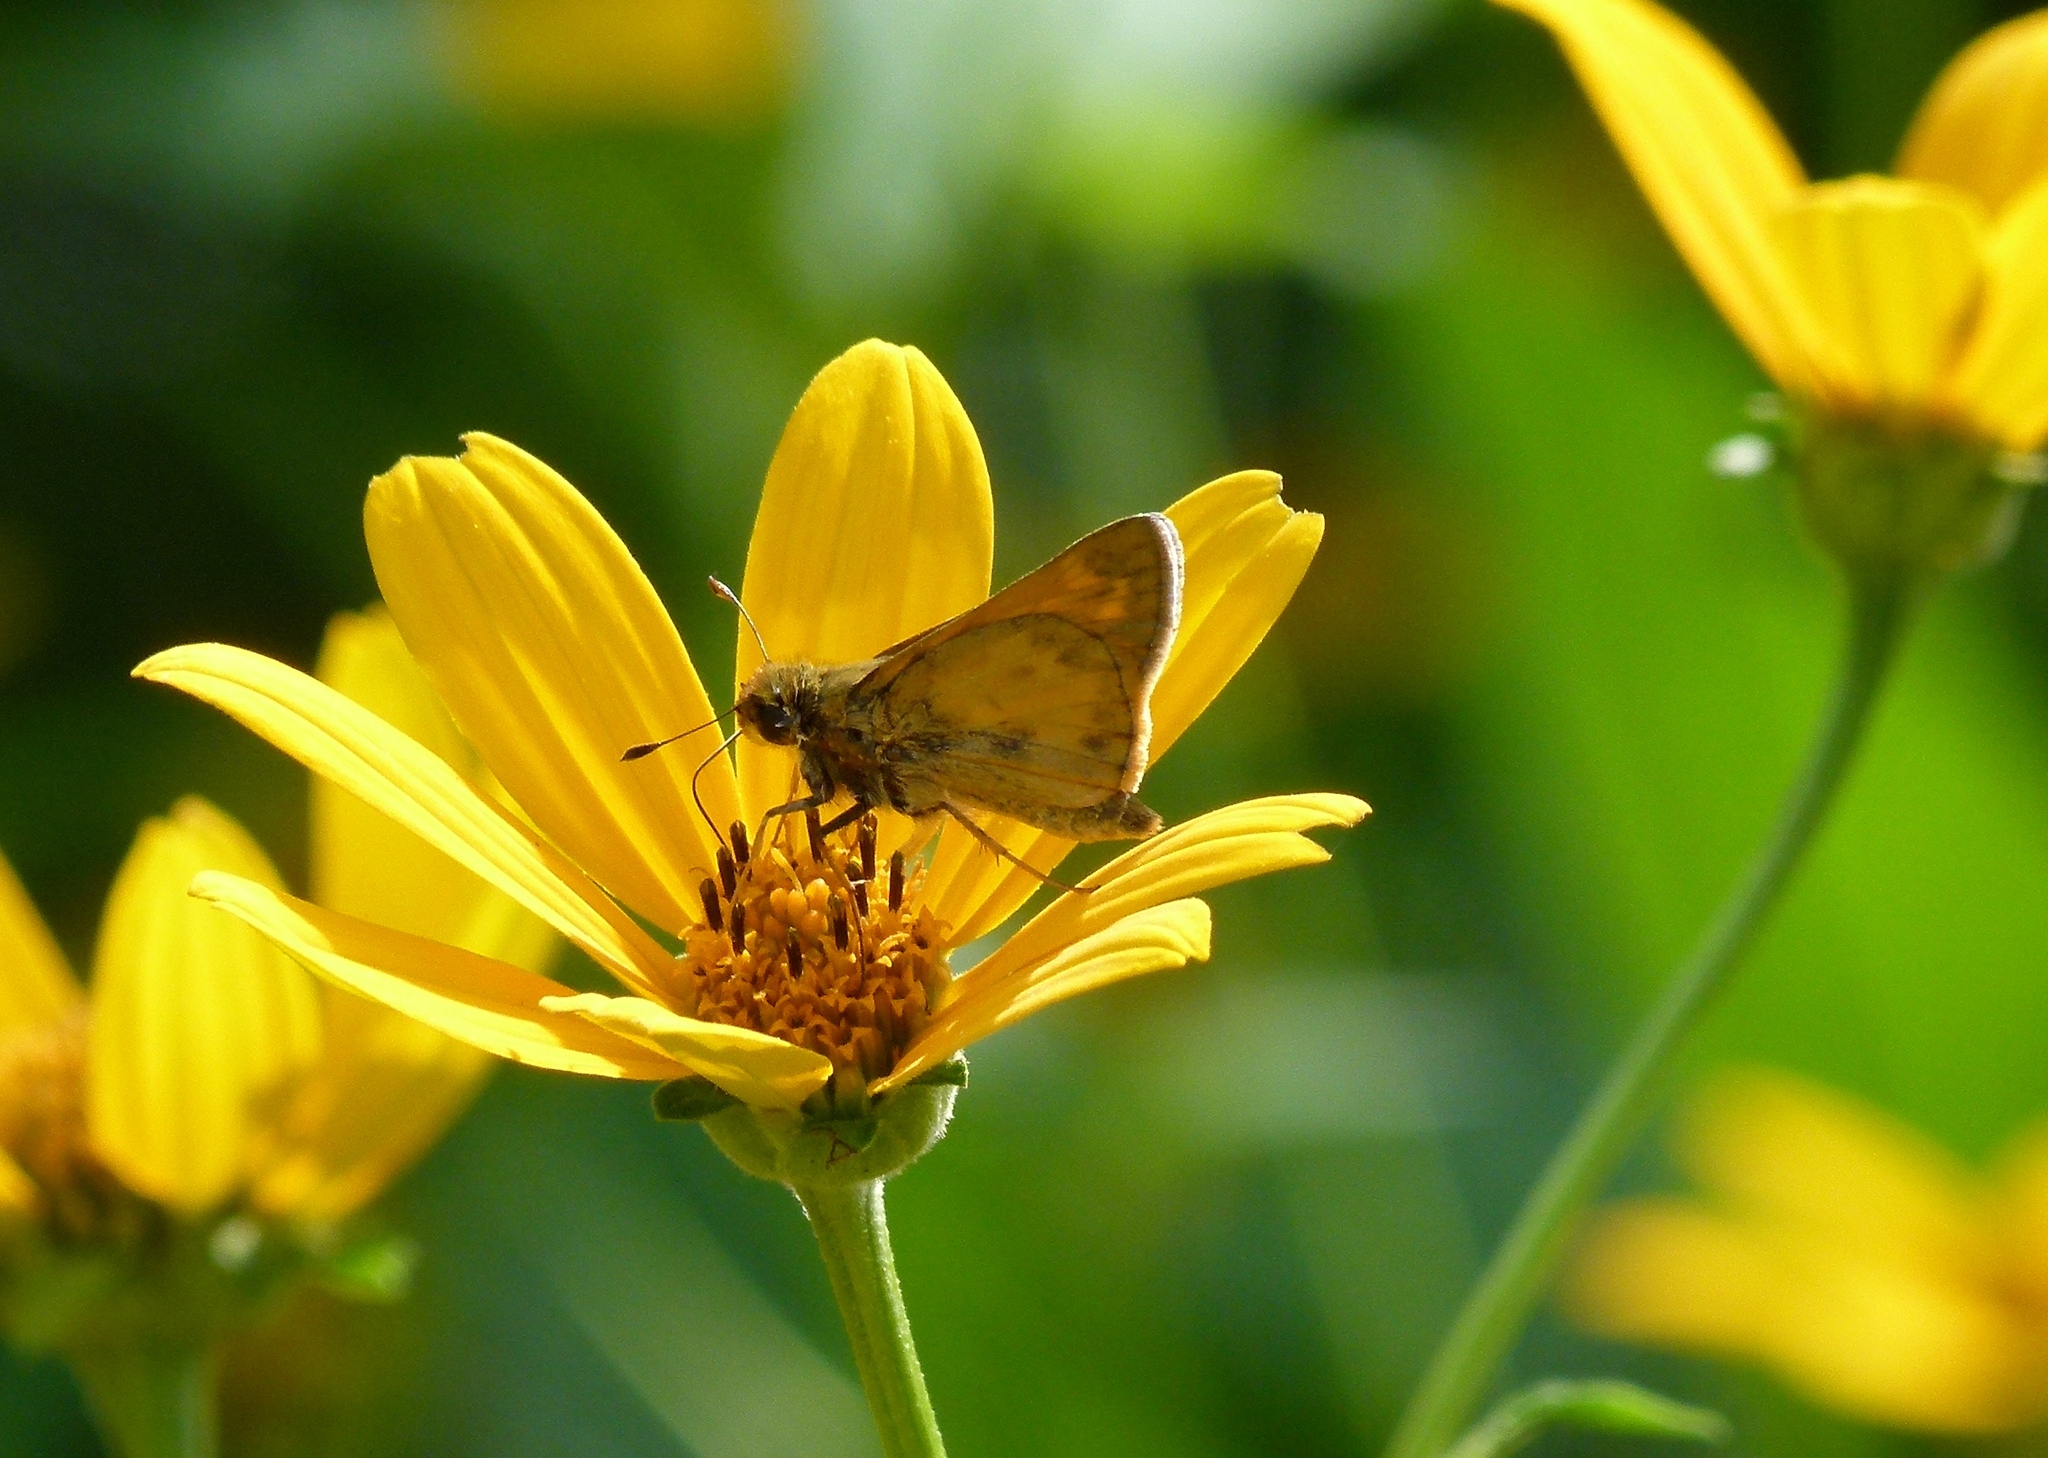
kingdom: Animalia
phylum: Arthropoda
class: Insecta
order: Lepidoptera
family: Hesperiidae
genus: Atalopedes
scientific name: Atalopedes
